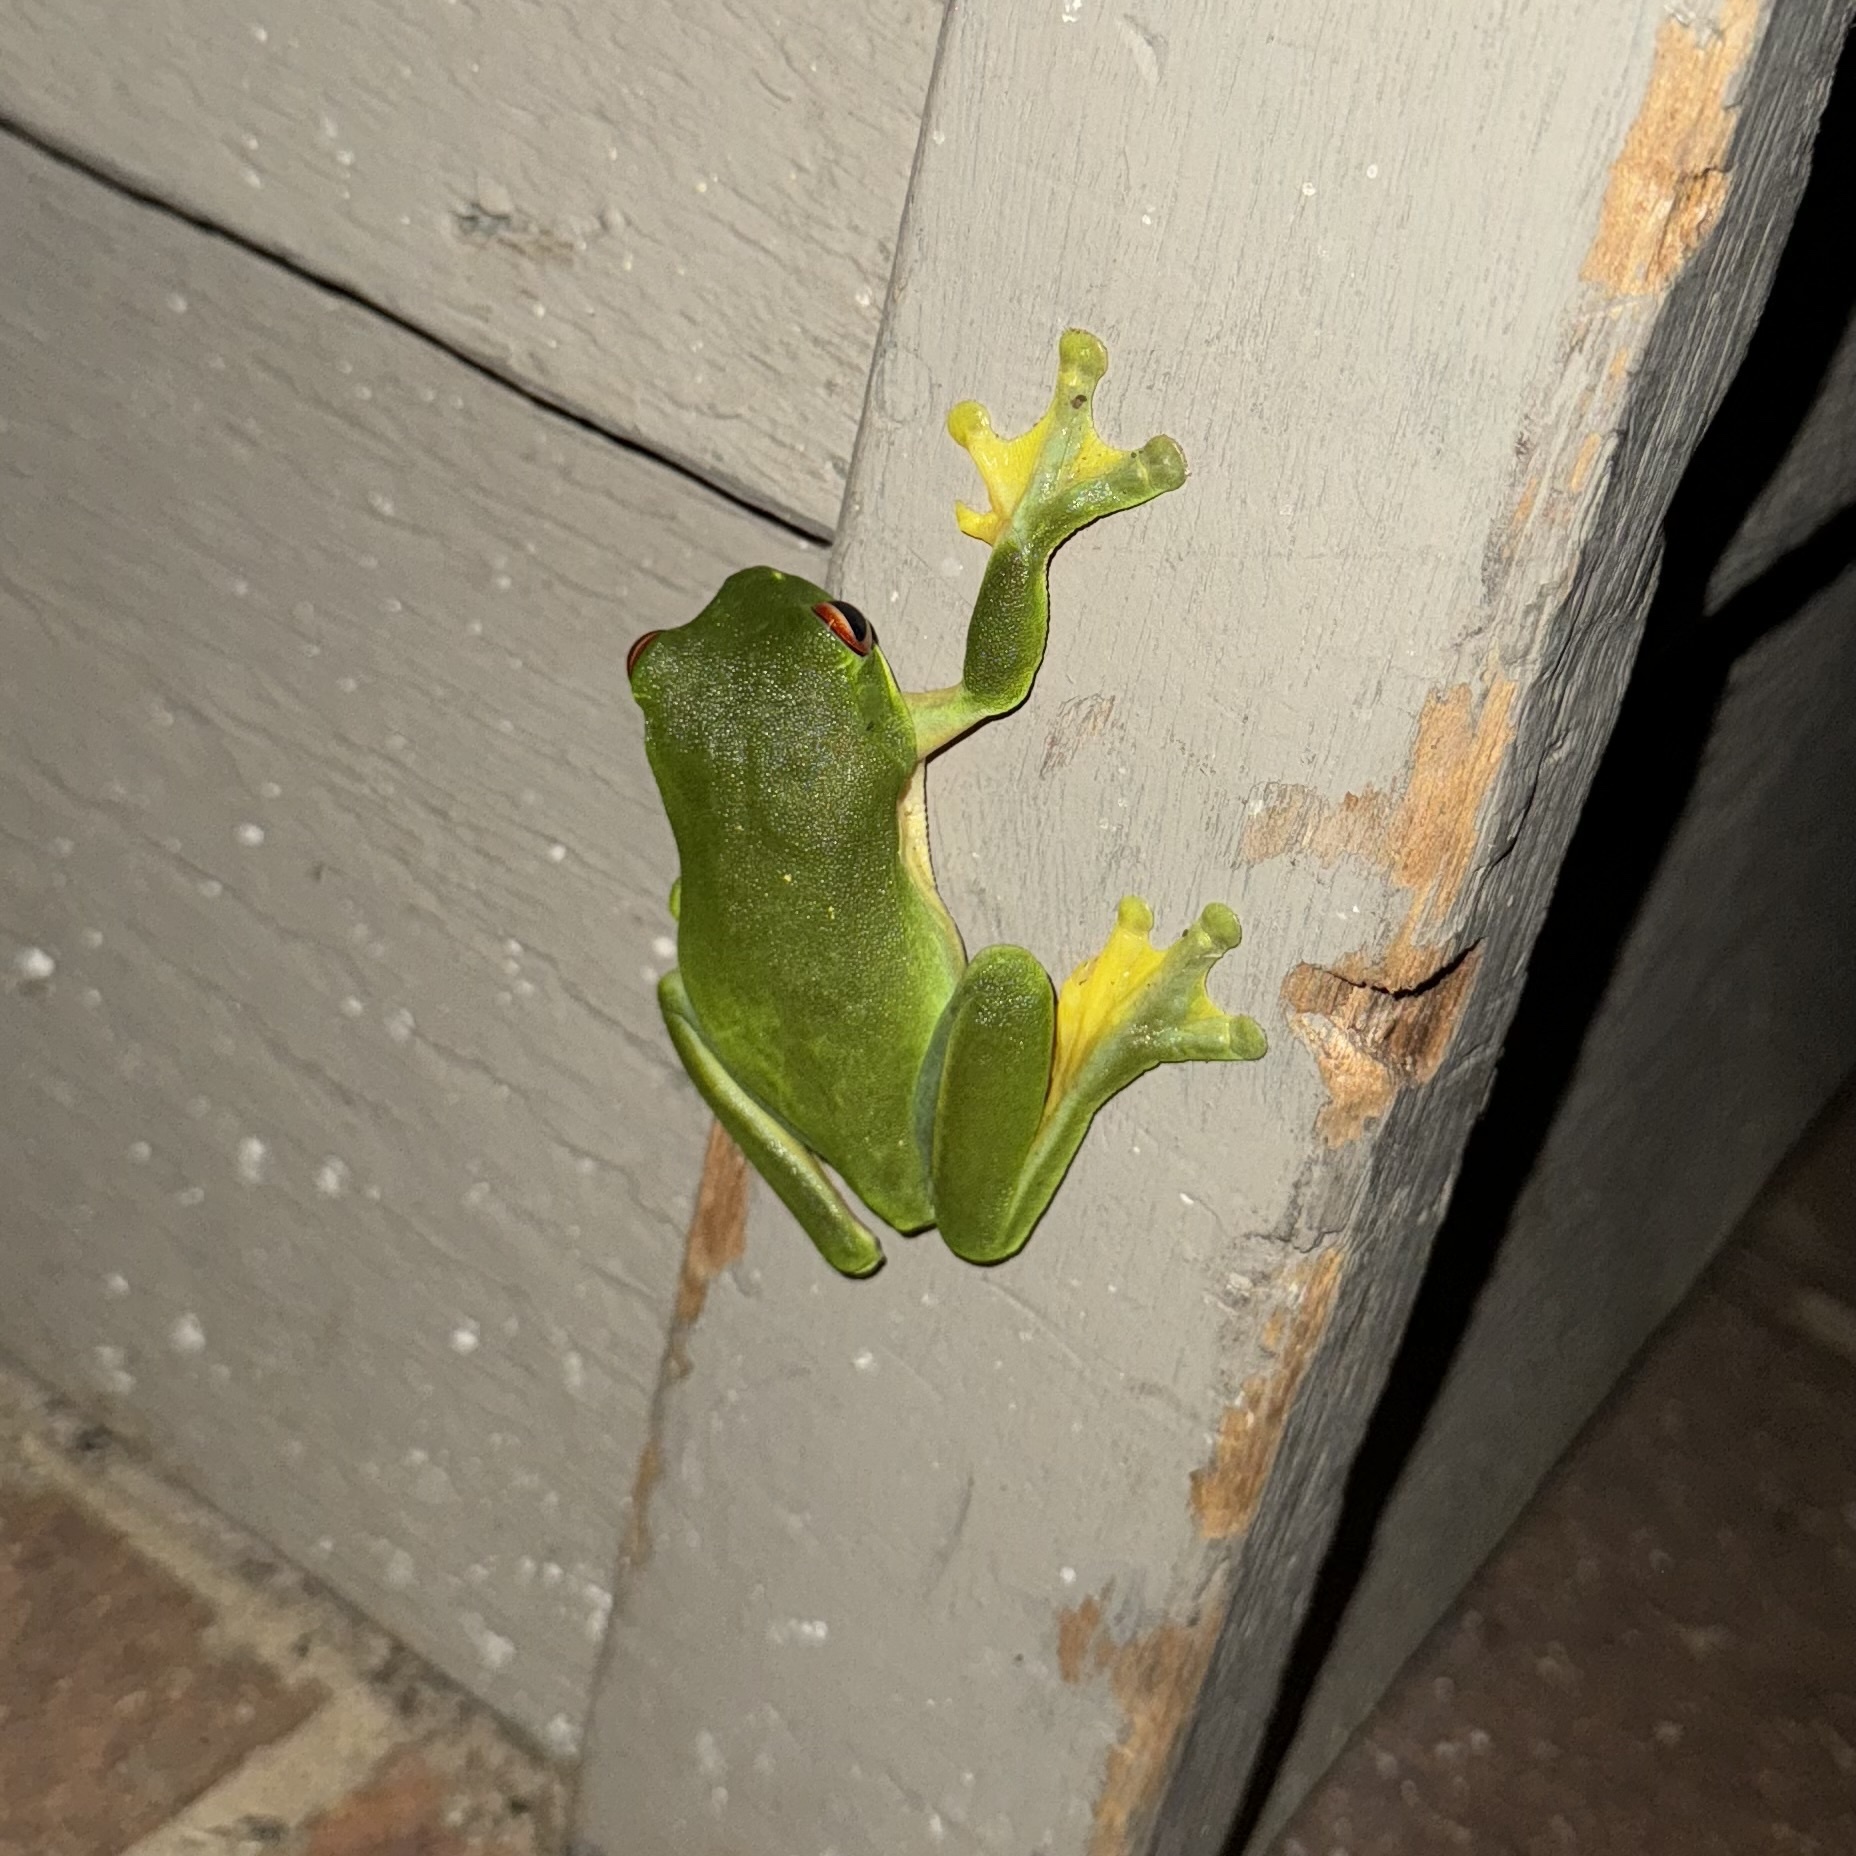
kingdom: Animalia
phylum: Chordata
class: Amphibia
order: Anura
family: Pelodryadidae
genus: Ranoidea
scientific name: Ranoidea chloris
